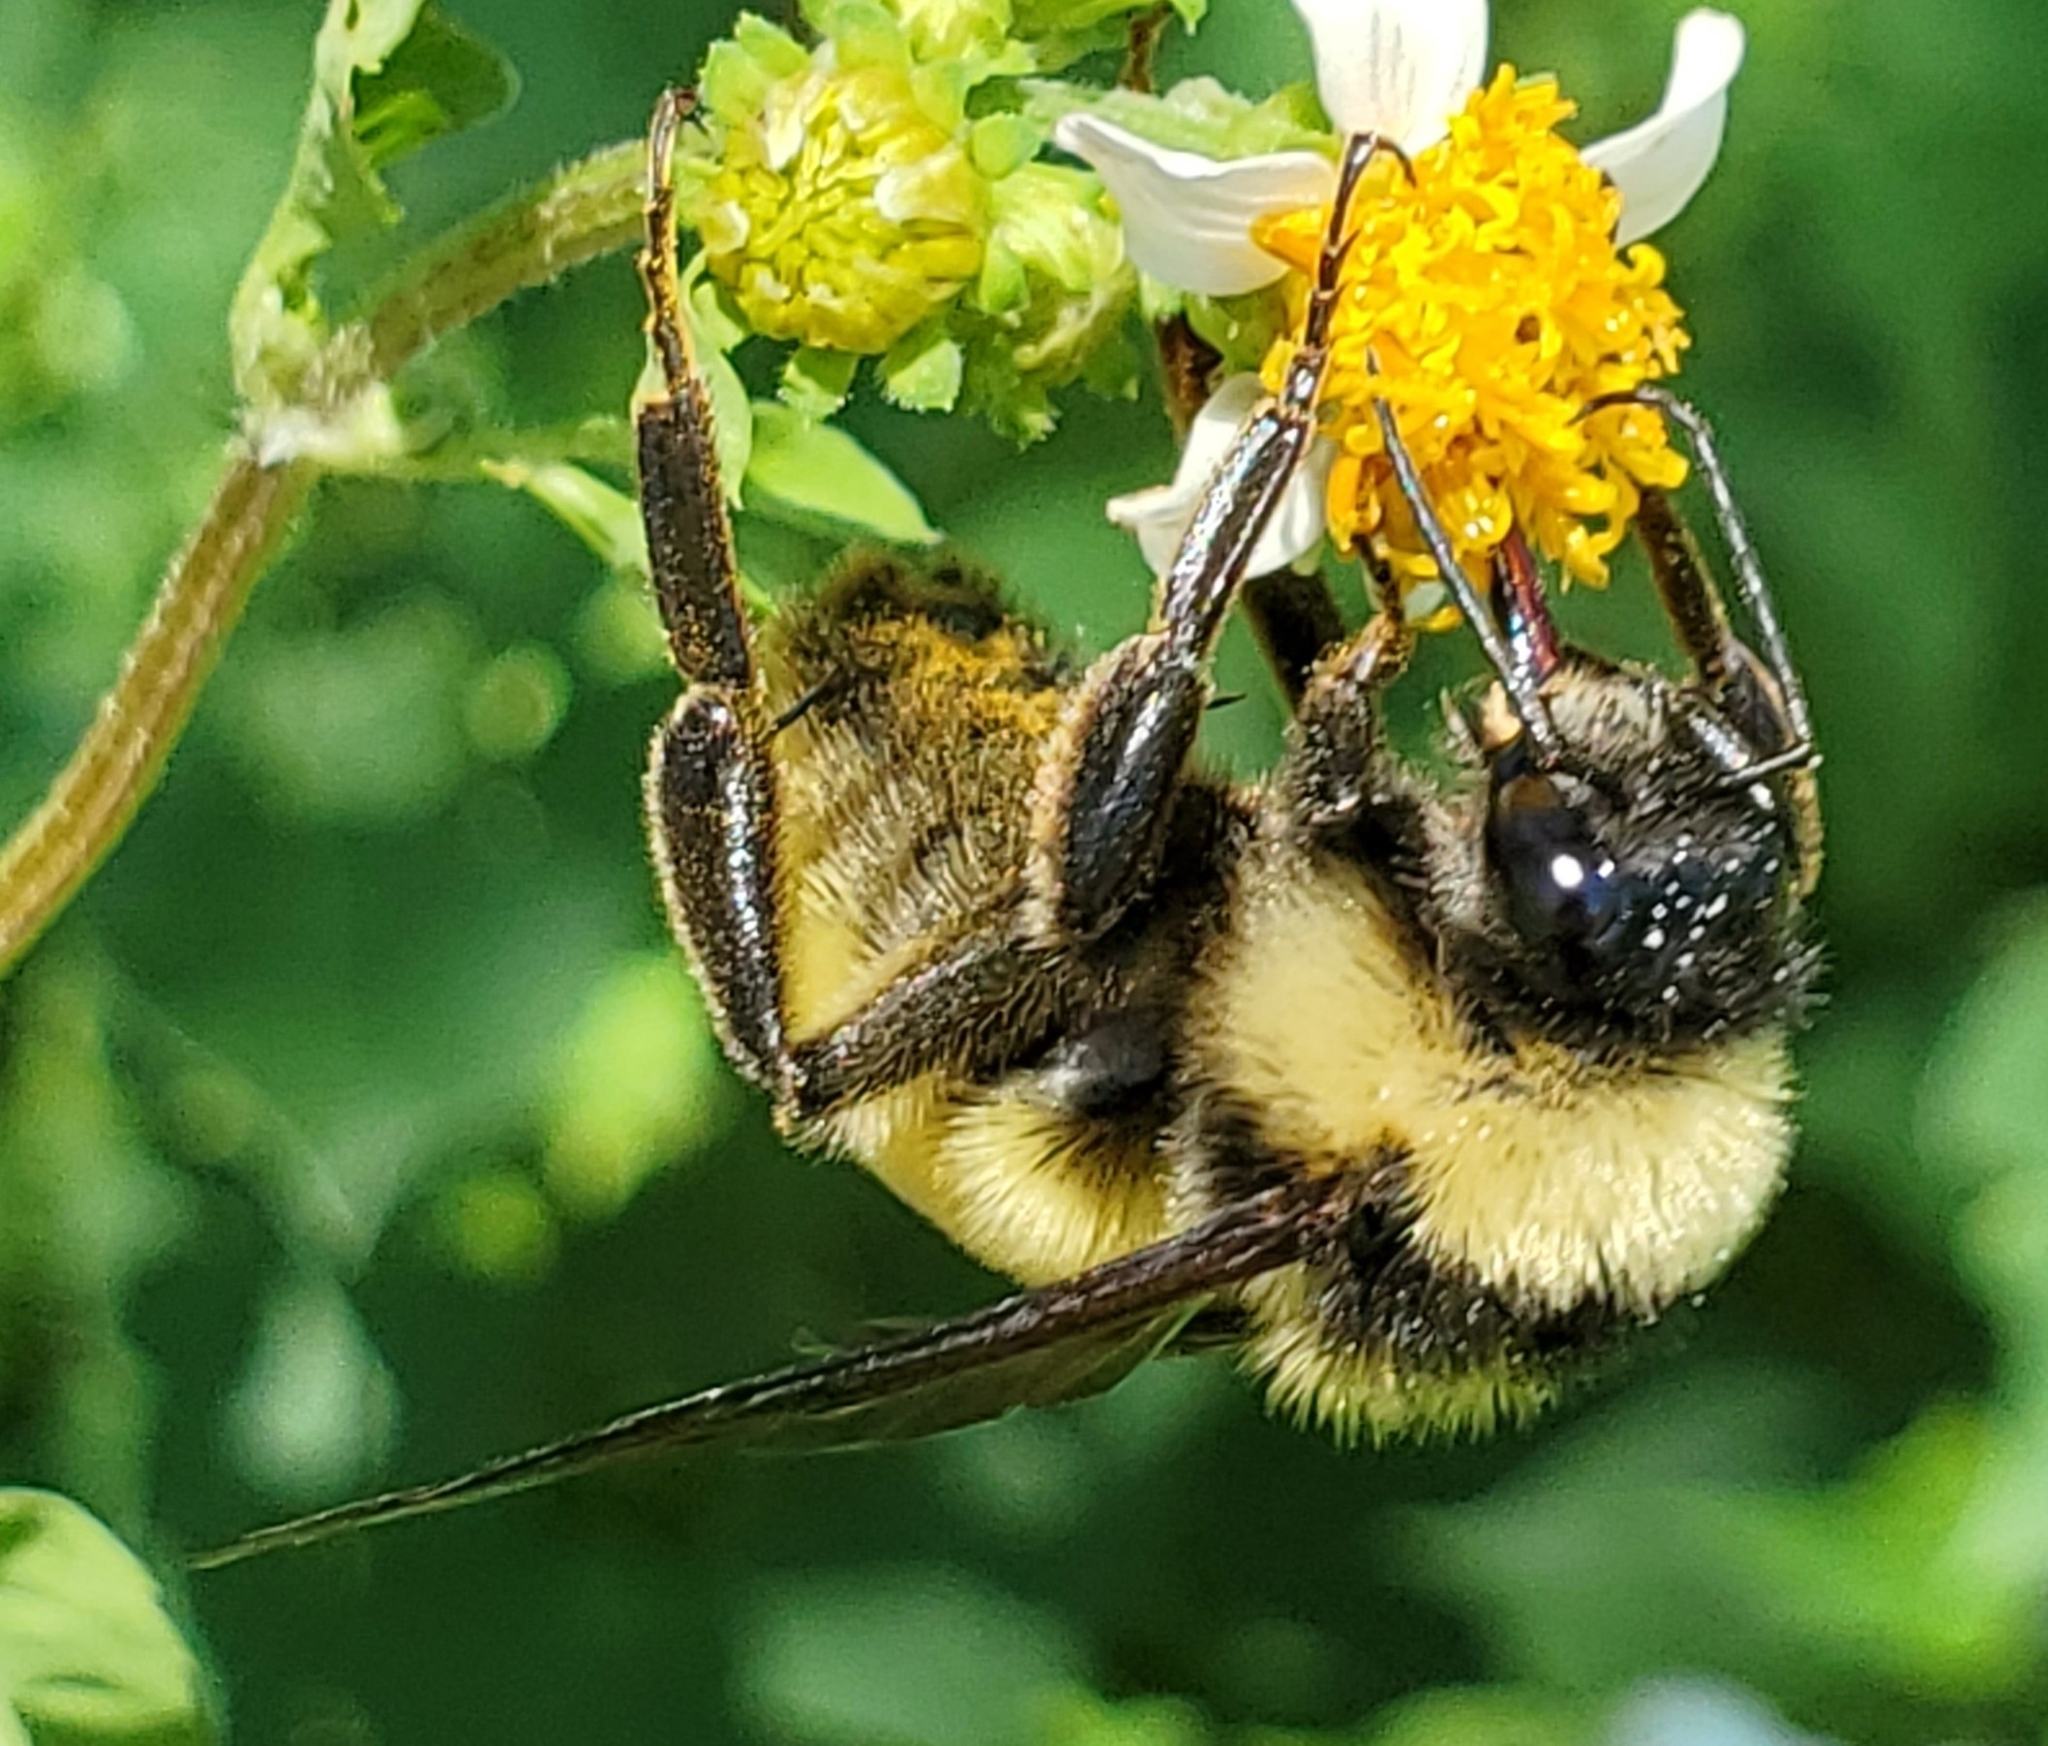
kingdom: Animalia
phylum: Arthropoda
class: Insecta
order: Hymenoptera
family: Apidae
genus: Bombus
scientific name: Bombus pensylvanicus
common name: Bumble bee
